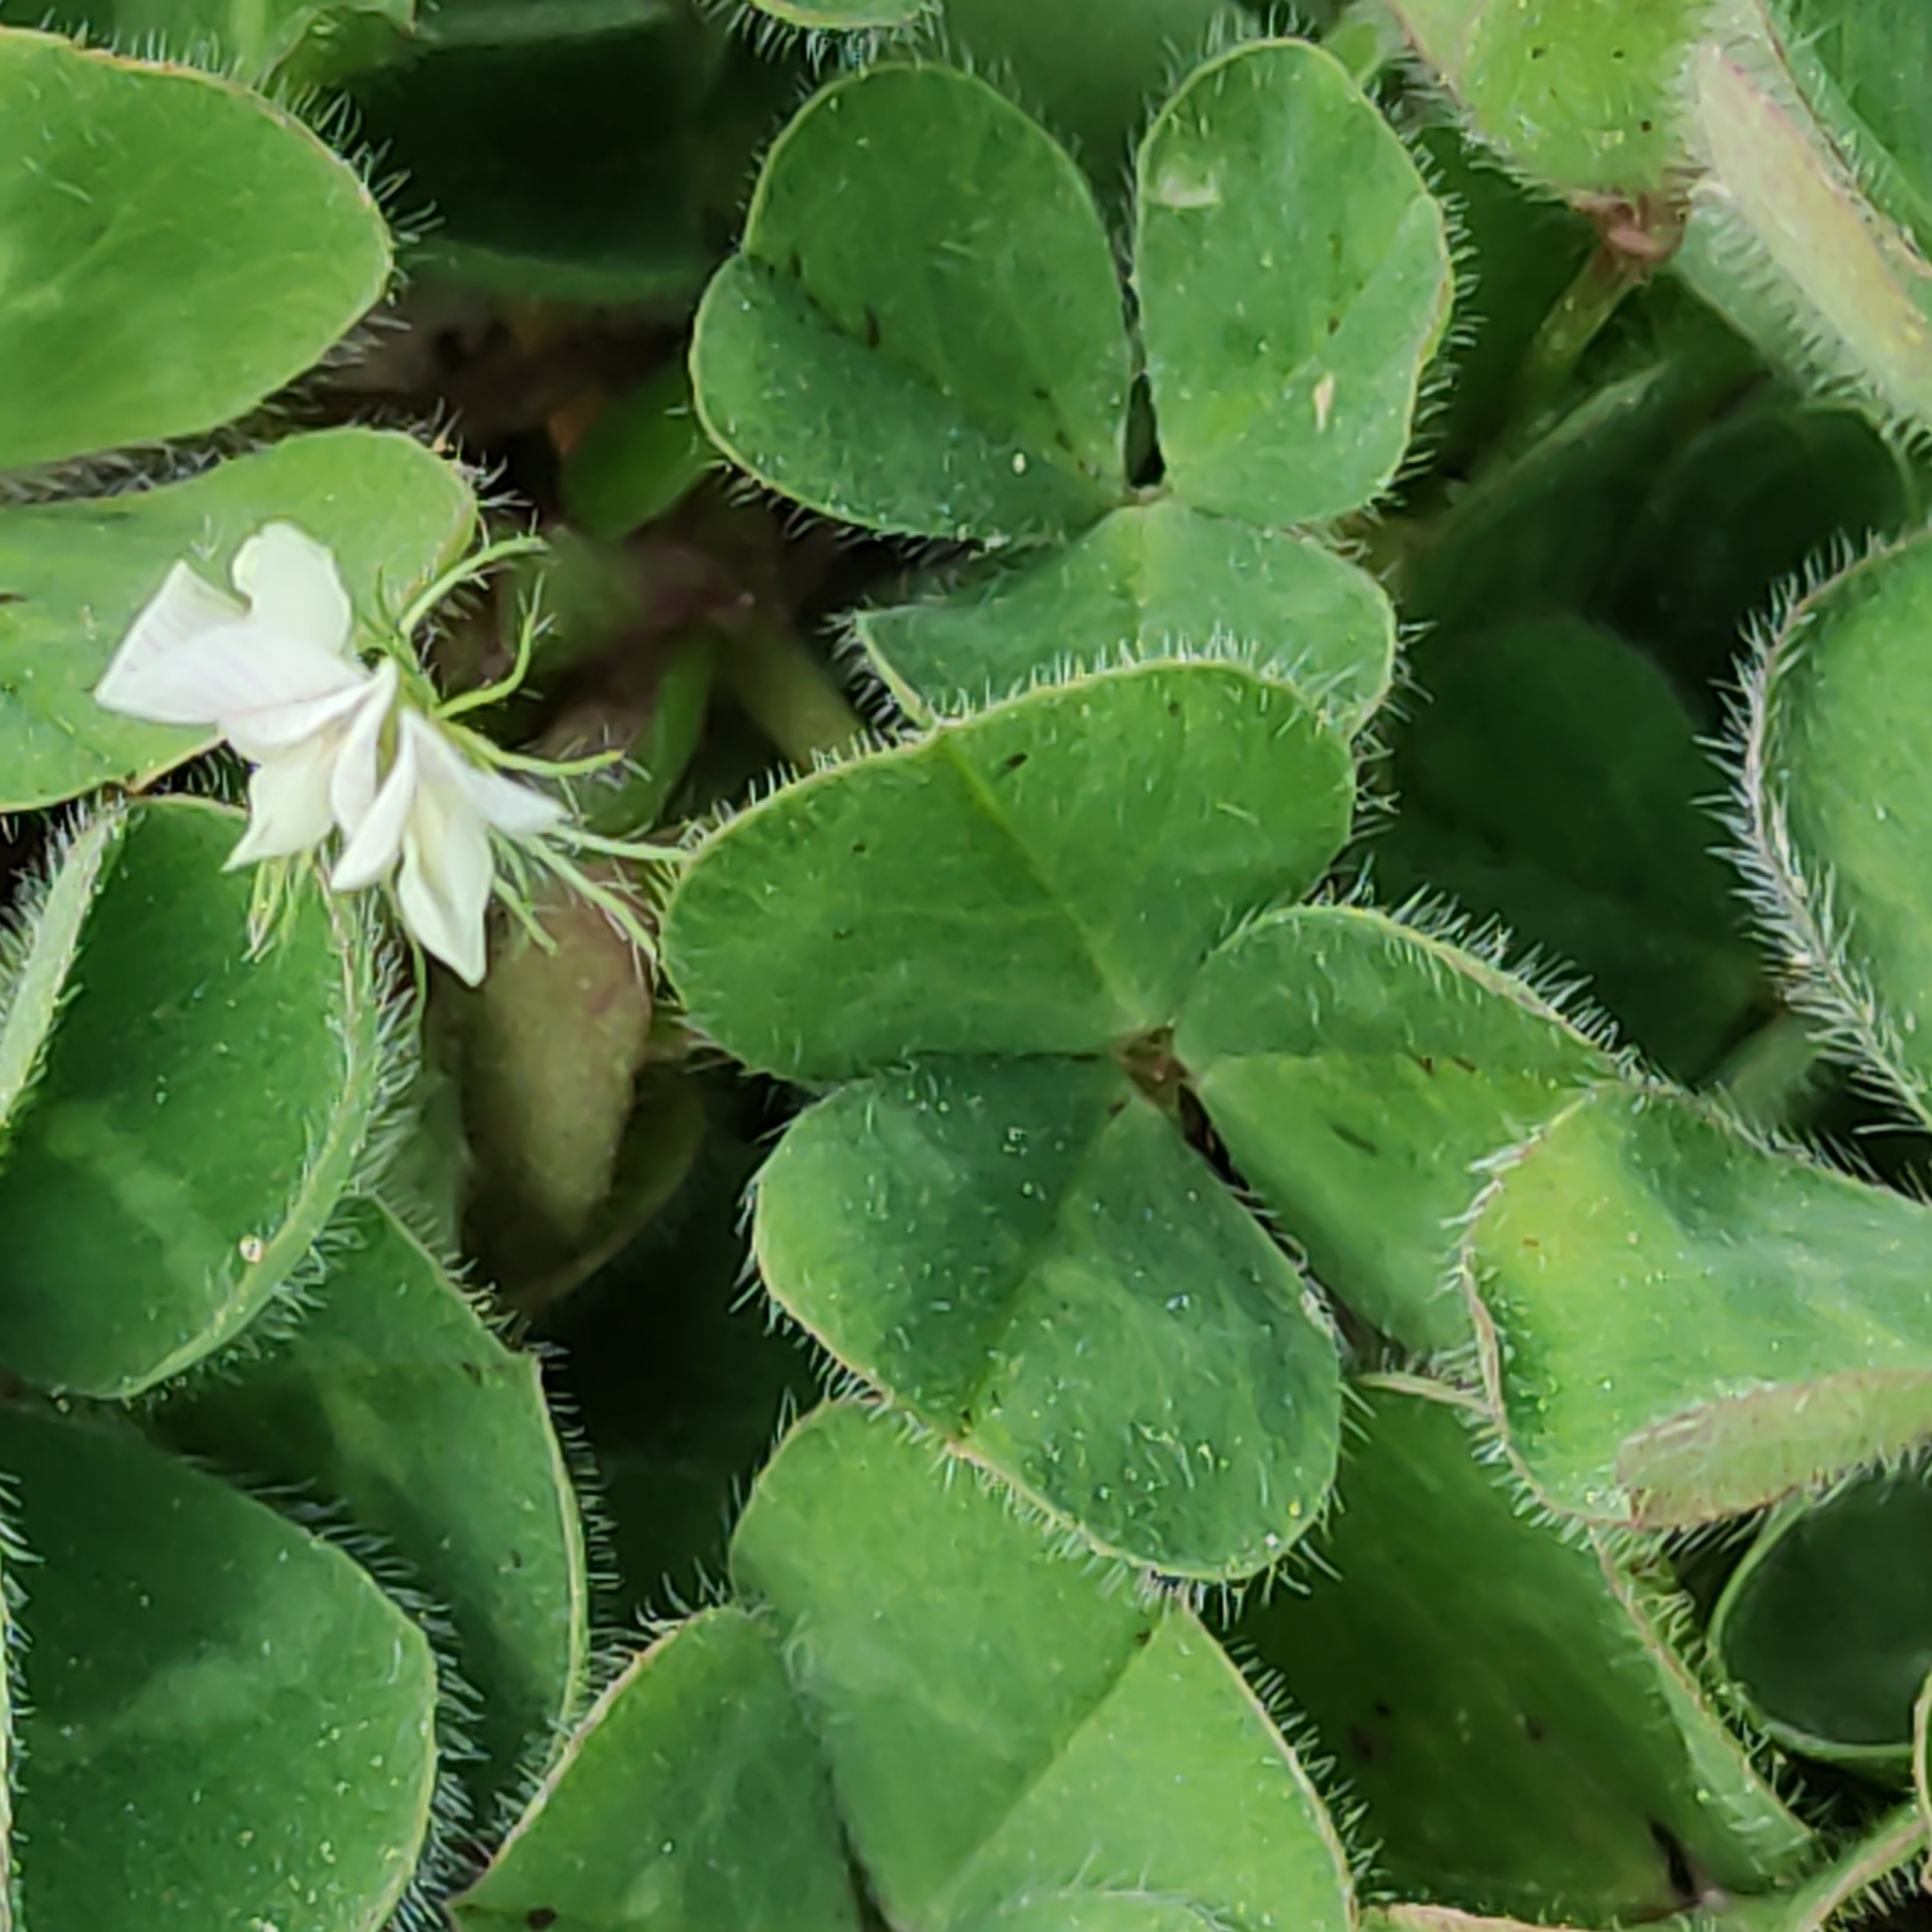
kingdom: Plantae
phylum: Tracheophyta
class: Magnoliopsida
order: Fabales
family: Fabaceae
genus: Trifolium
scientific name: Trifolium subterraneum
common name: Subterranean clover
